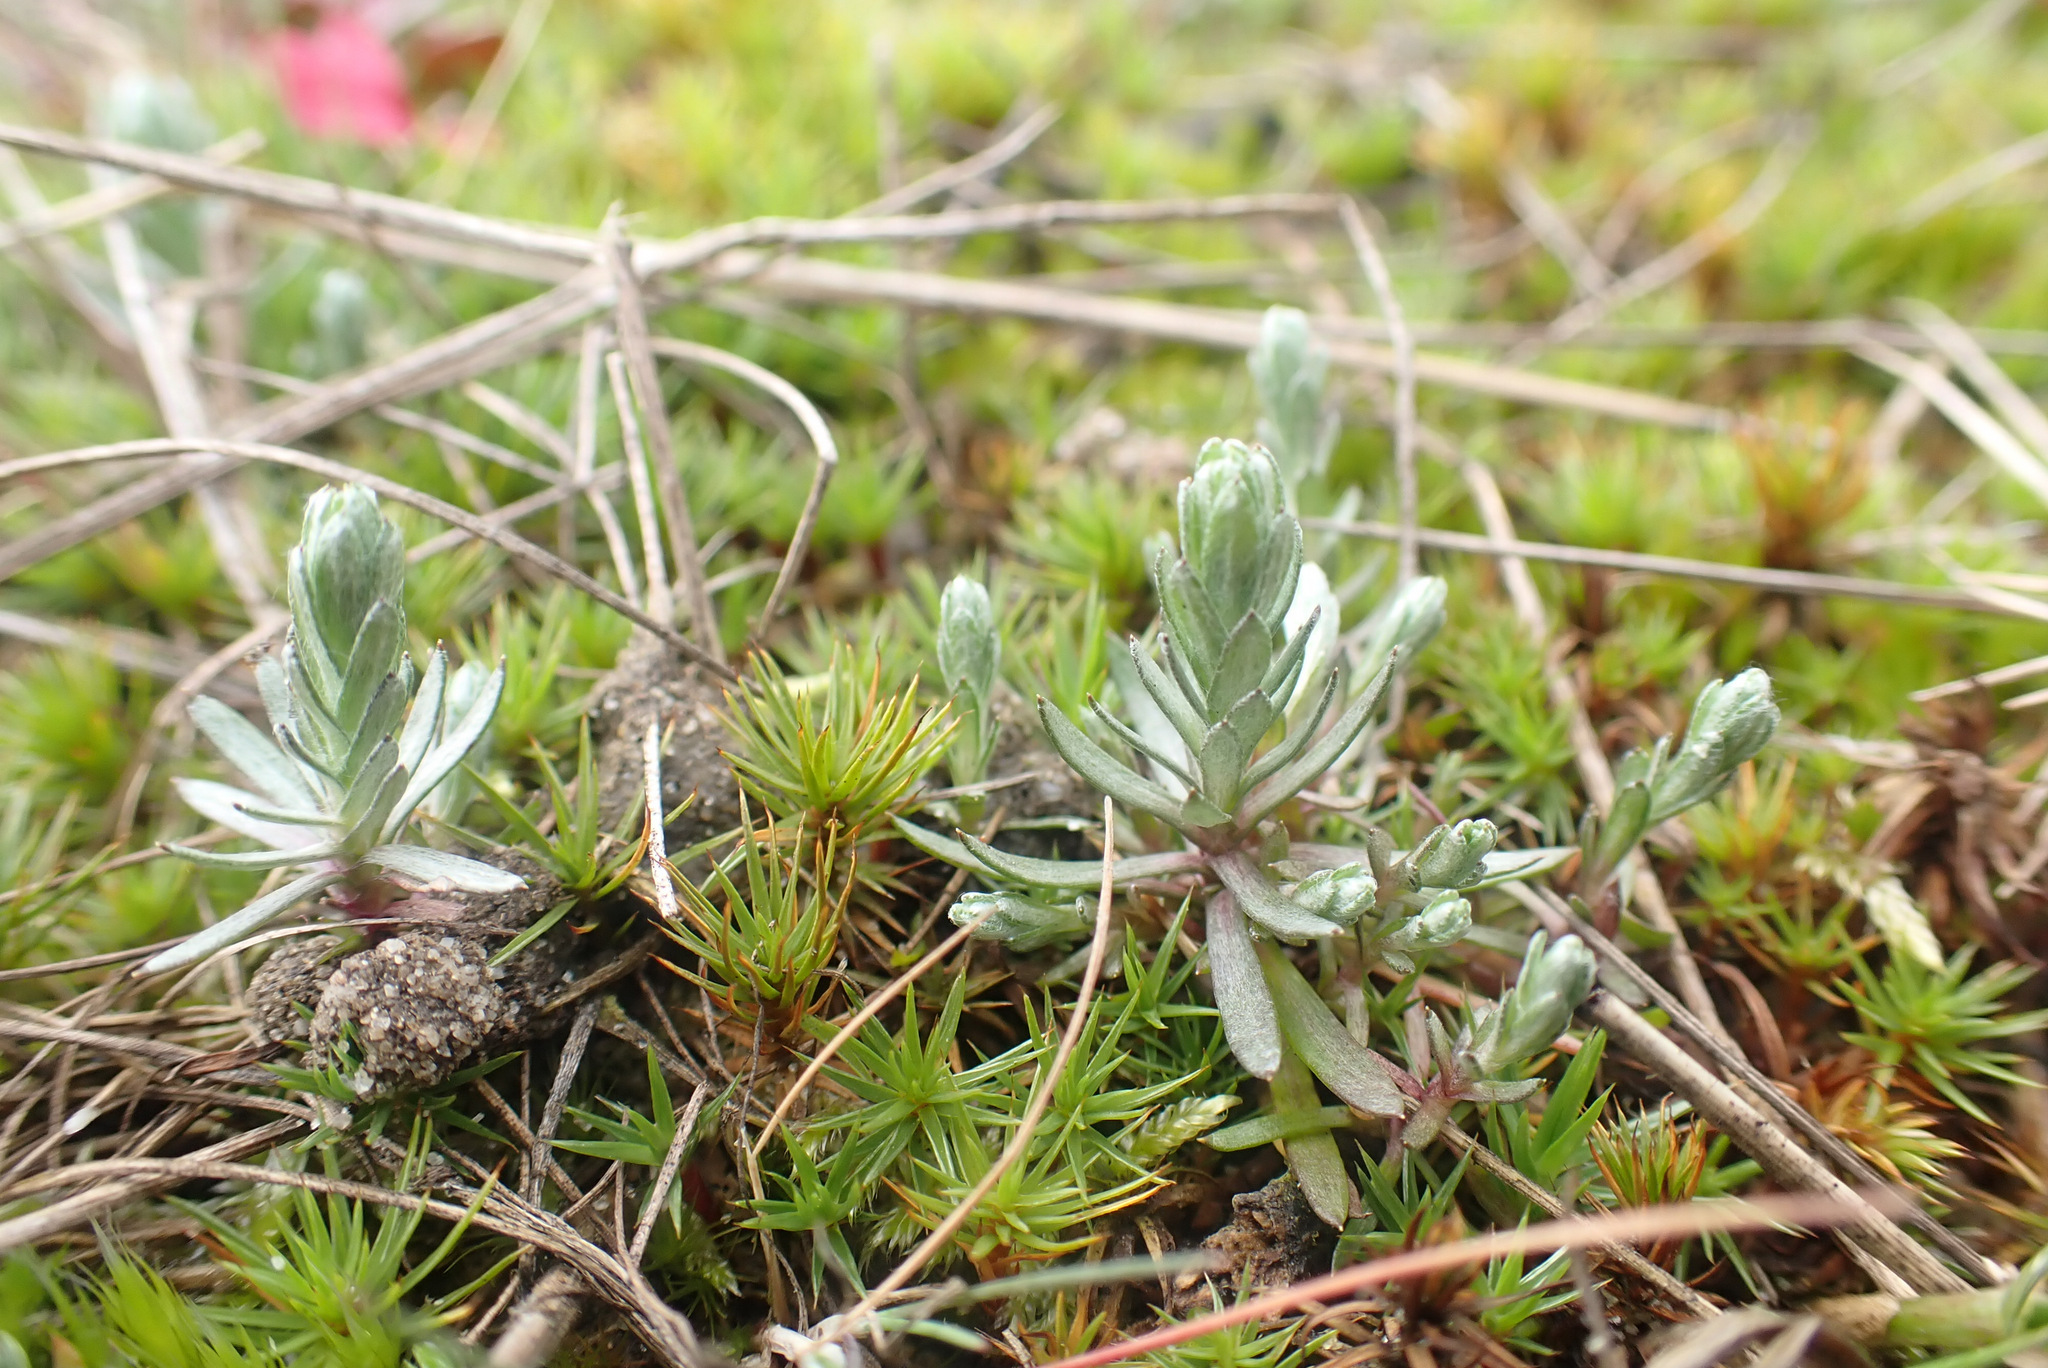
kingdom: Plantae
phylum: Tracheophyta
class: Magnoliopsida
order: Asterales
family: Asteraceae
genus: Logfia
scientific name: Logfia minima
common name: Little cottonrose
